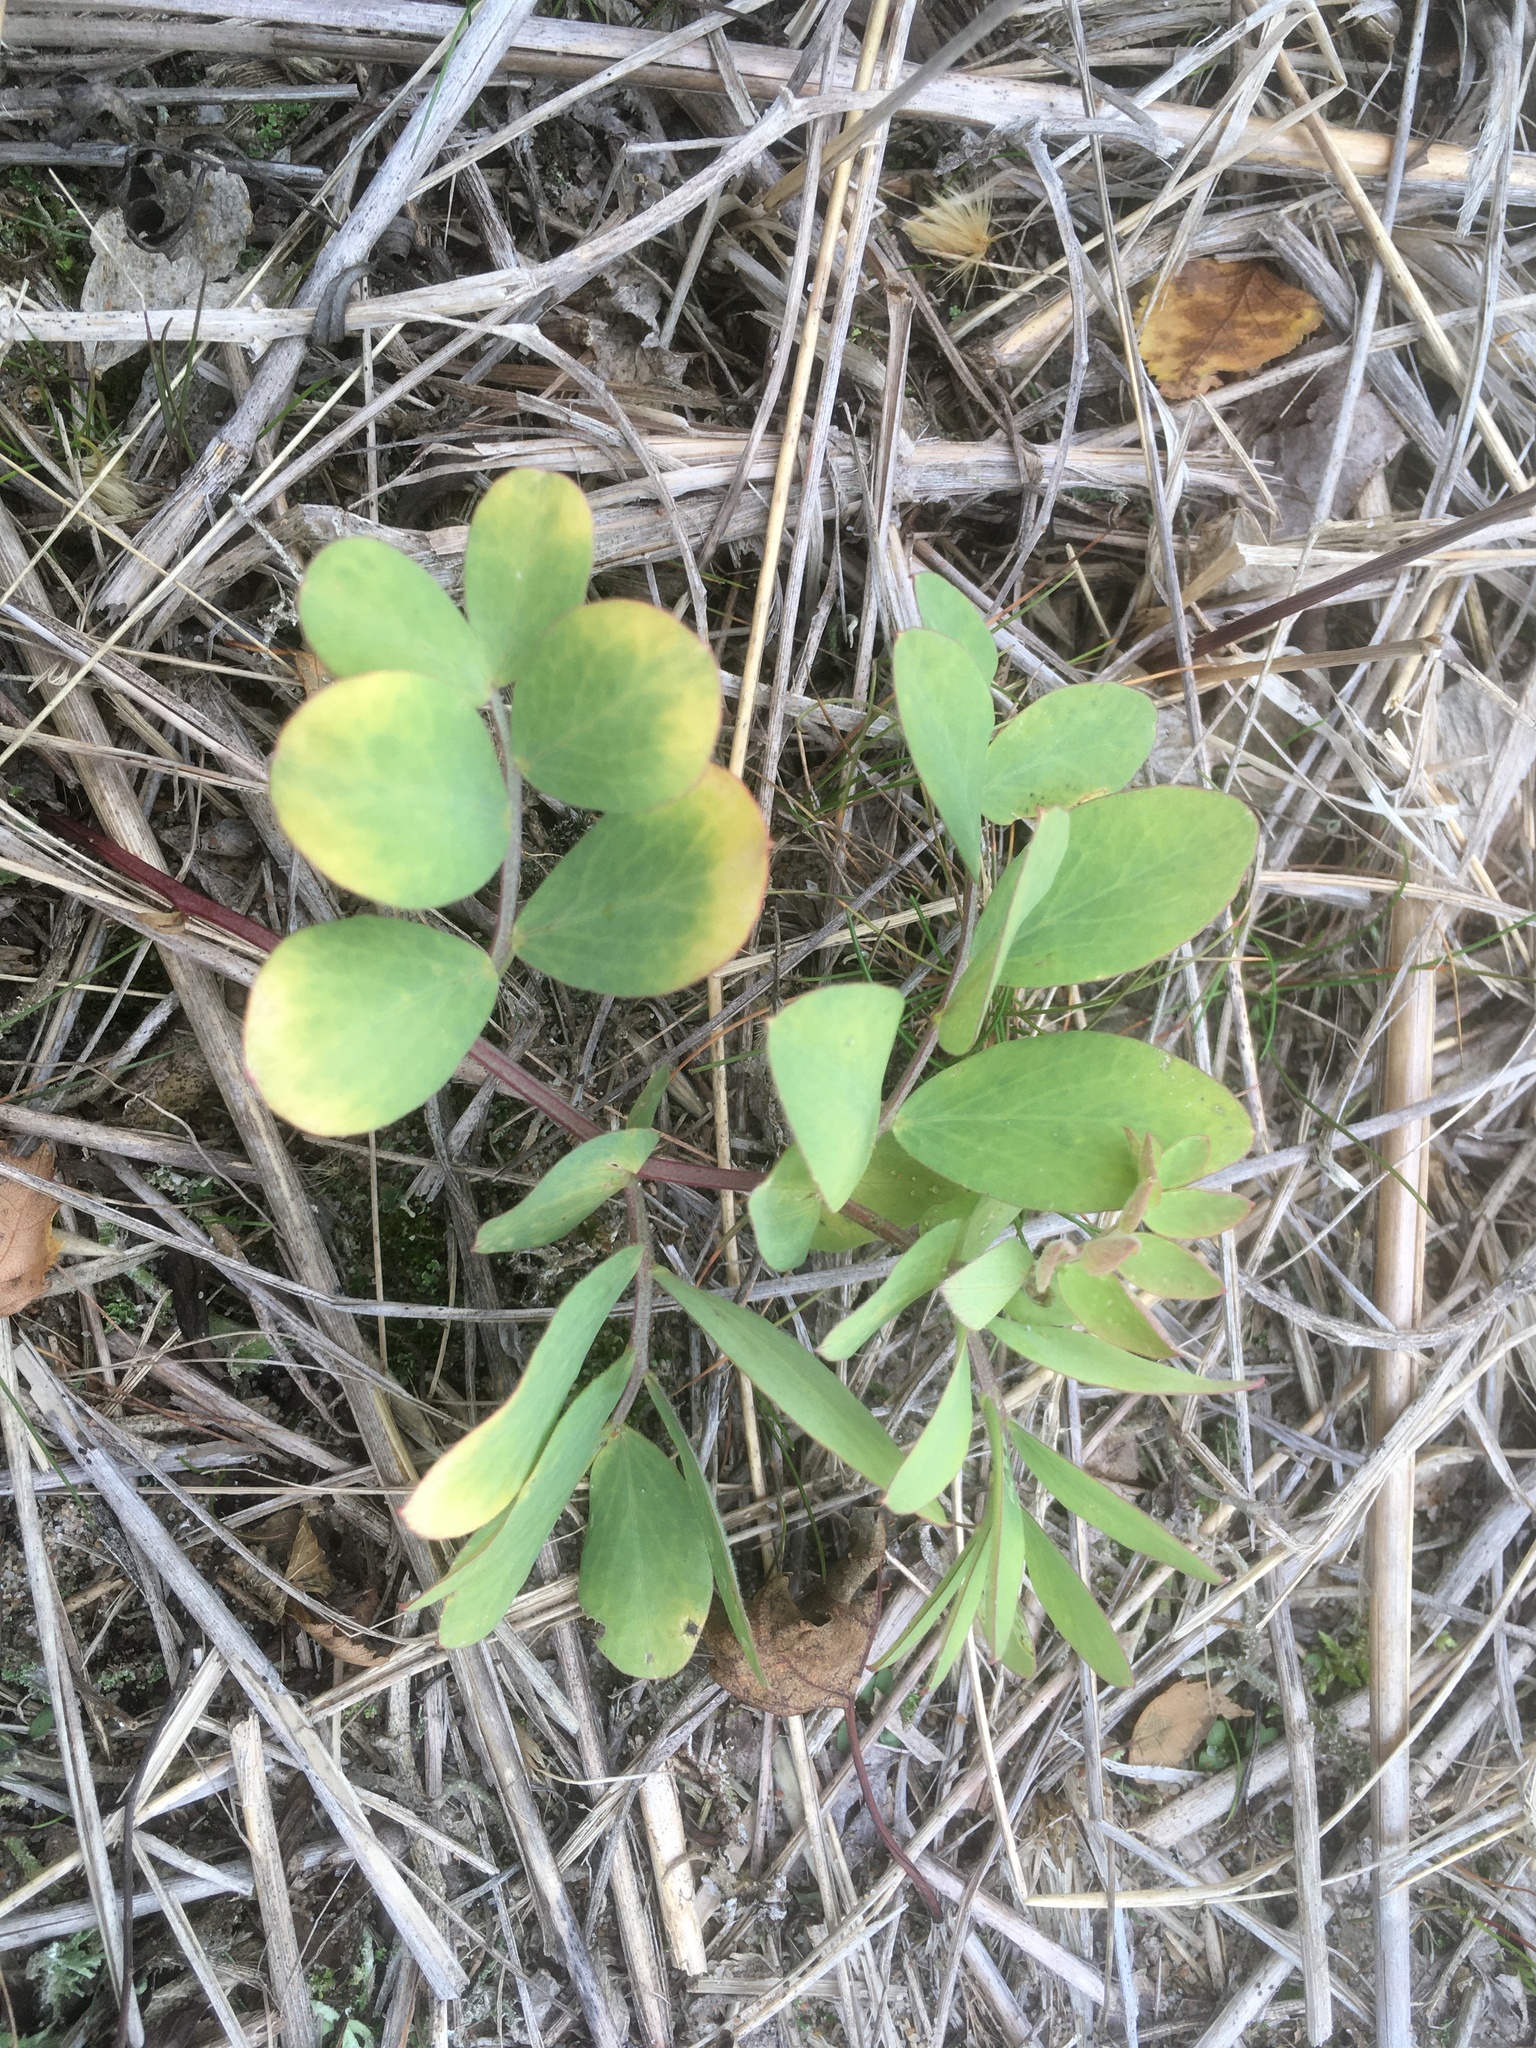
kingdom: Plantae
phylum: Tracheophyta
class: Magnoliopsida
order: Fabales
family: Fabaceae
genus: Lathyrus
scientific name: Lathyrus japonicus
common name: Sea pea
